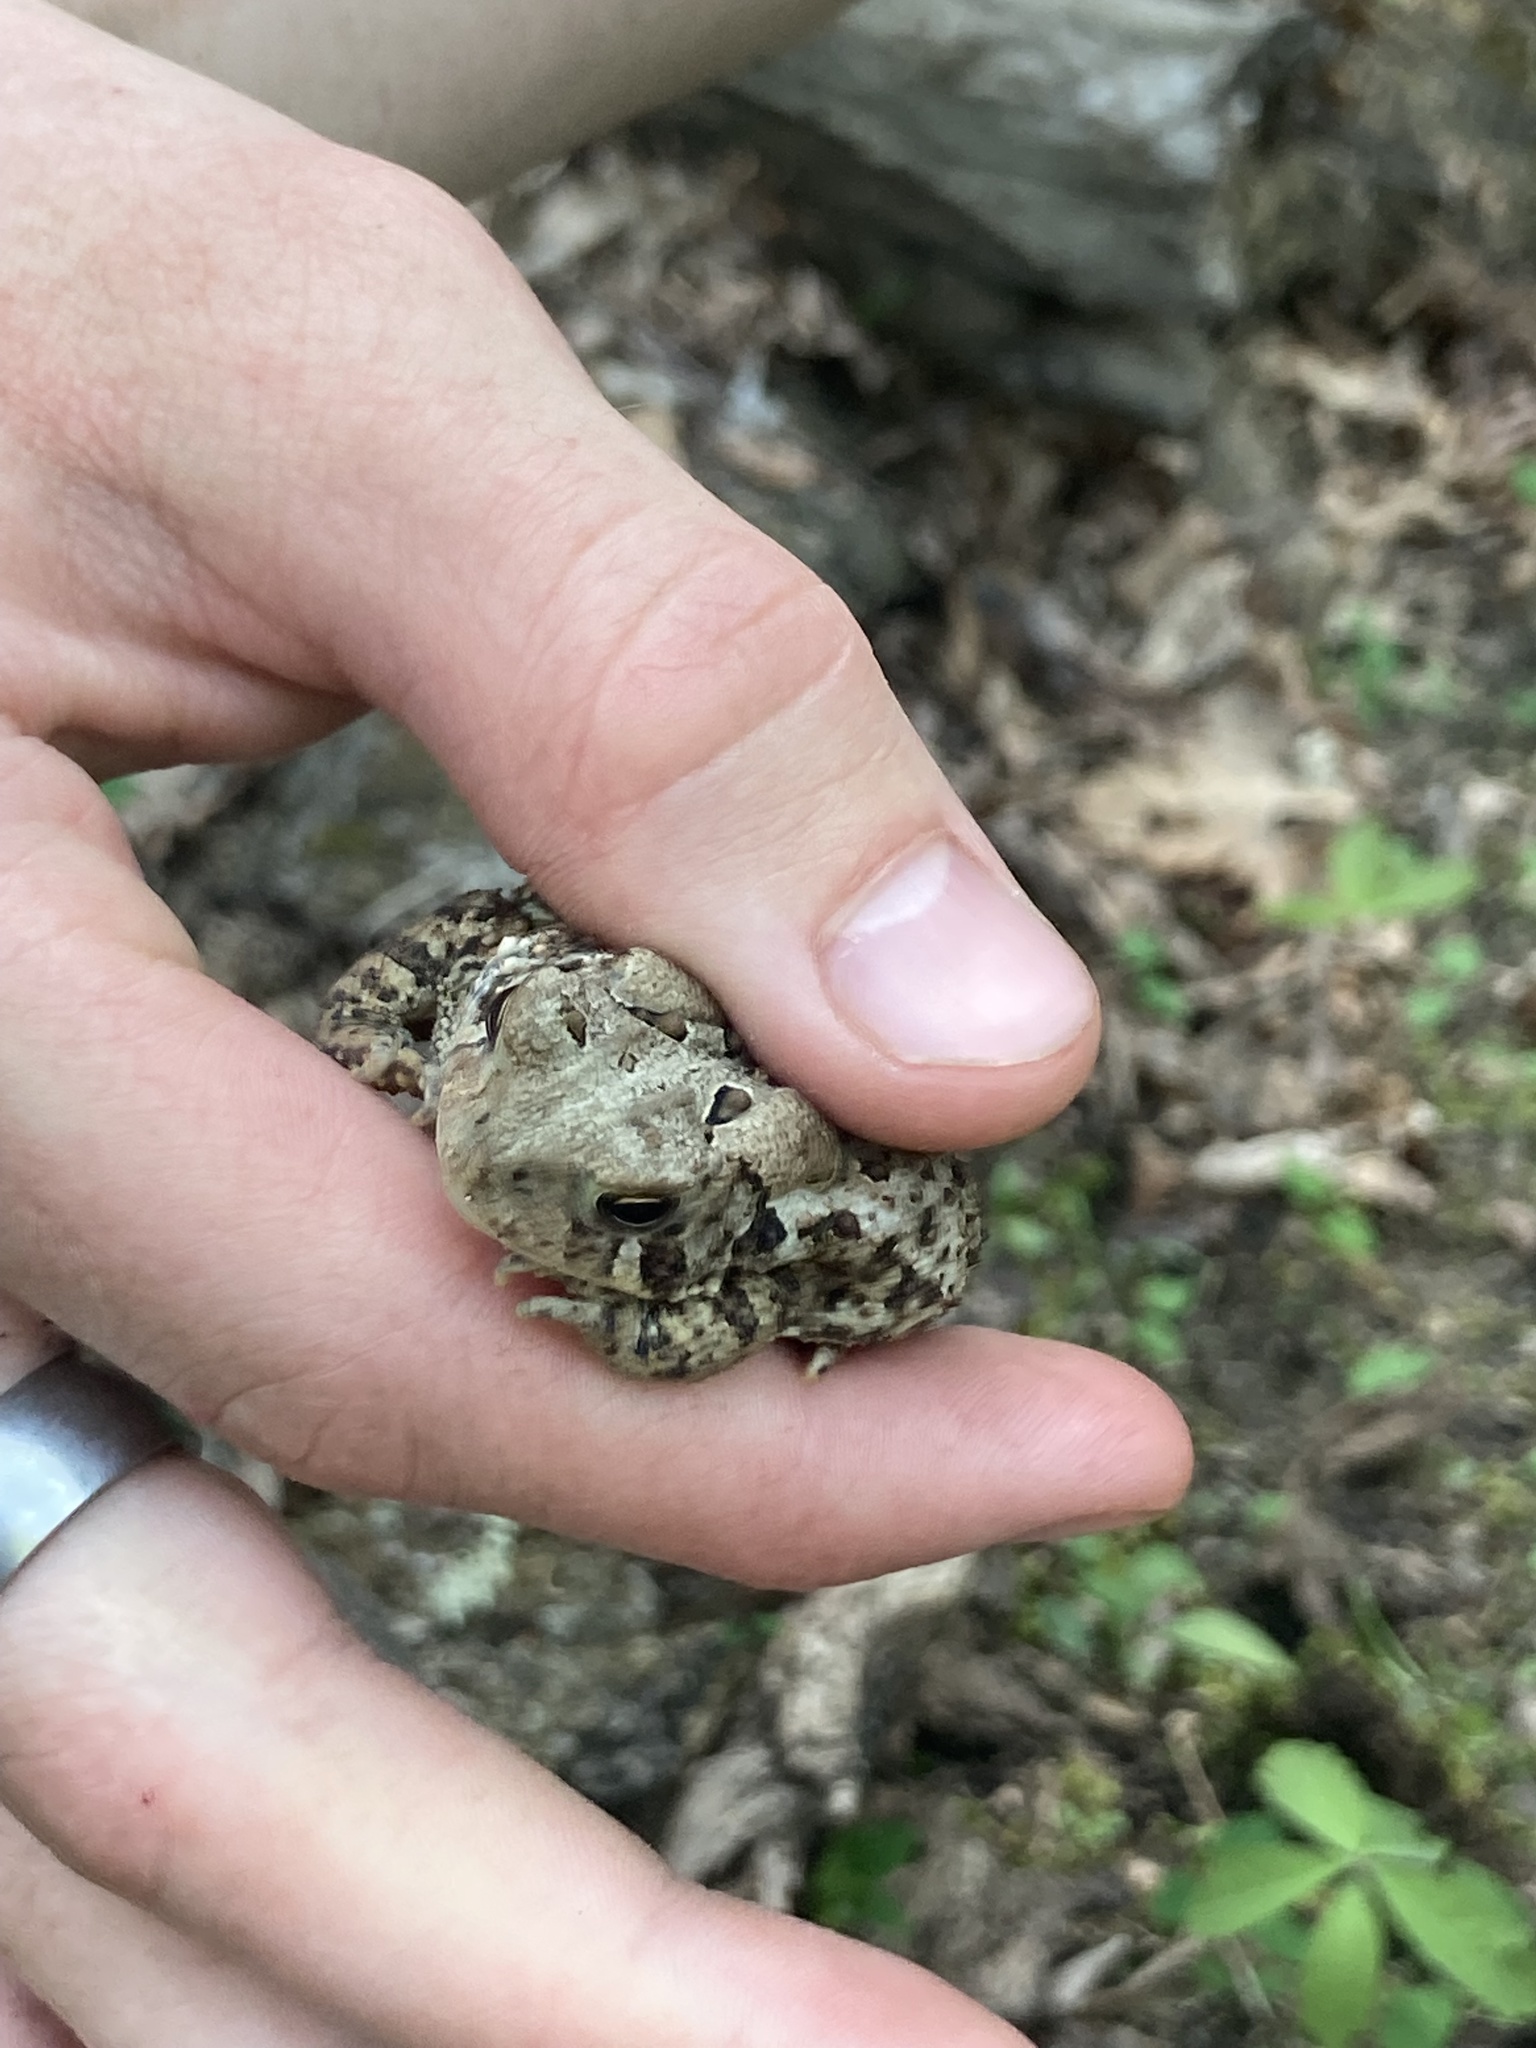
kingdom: Animalia
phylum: Chordata
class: Amphibia
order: Anura
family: Bufonidae
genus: Anaxyrus
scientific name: Anaxyrus americanus
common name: American toad
